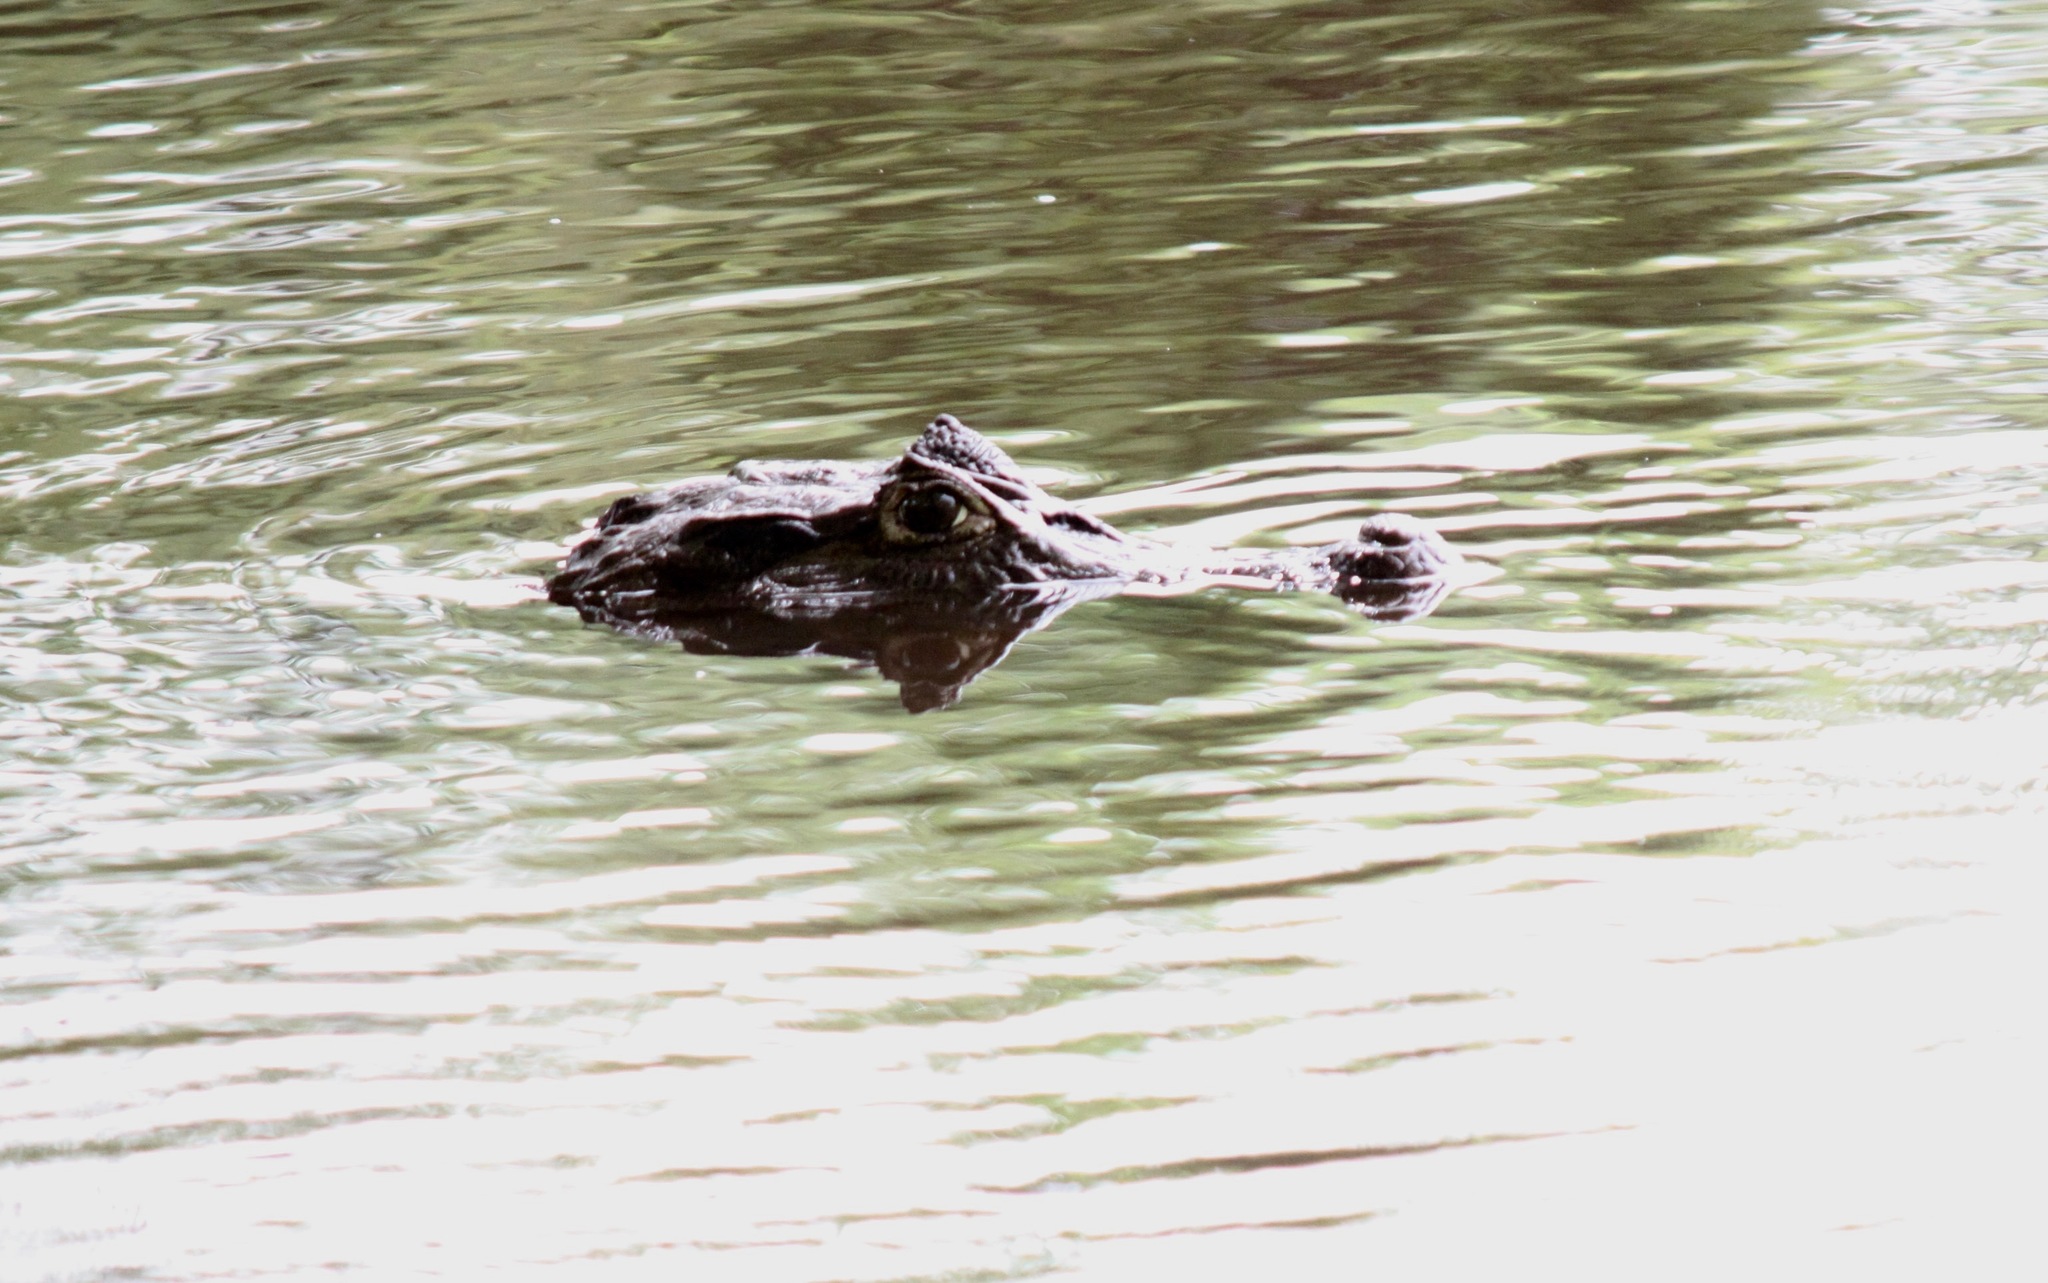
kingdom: Animalia
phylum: Chordata
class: Crocodylia
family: Alligatoridae
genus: Caiman
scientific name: Caiman crocodilus
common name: Common caiman
